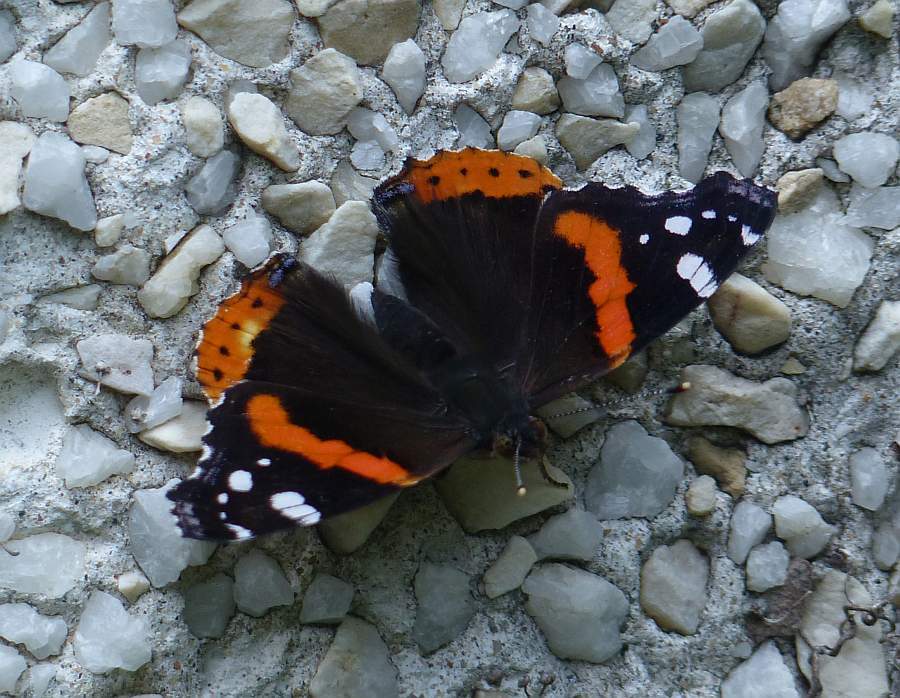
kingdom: Animalia
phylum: Arthropoda
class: Insecta
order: Lepidoptera
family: Nymphalidae
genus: Vanessa
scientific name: Vanessa atalanta
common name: Red admiral
